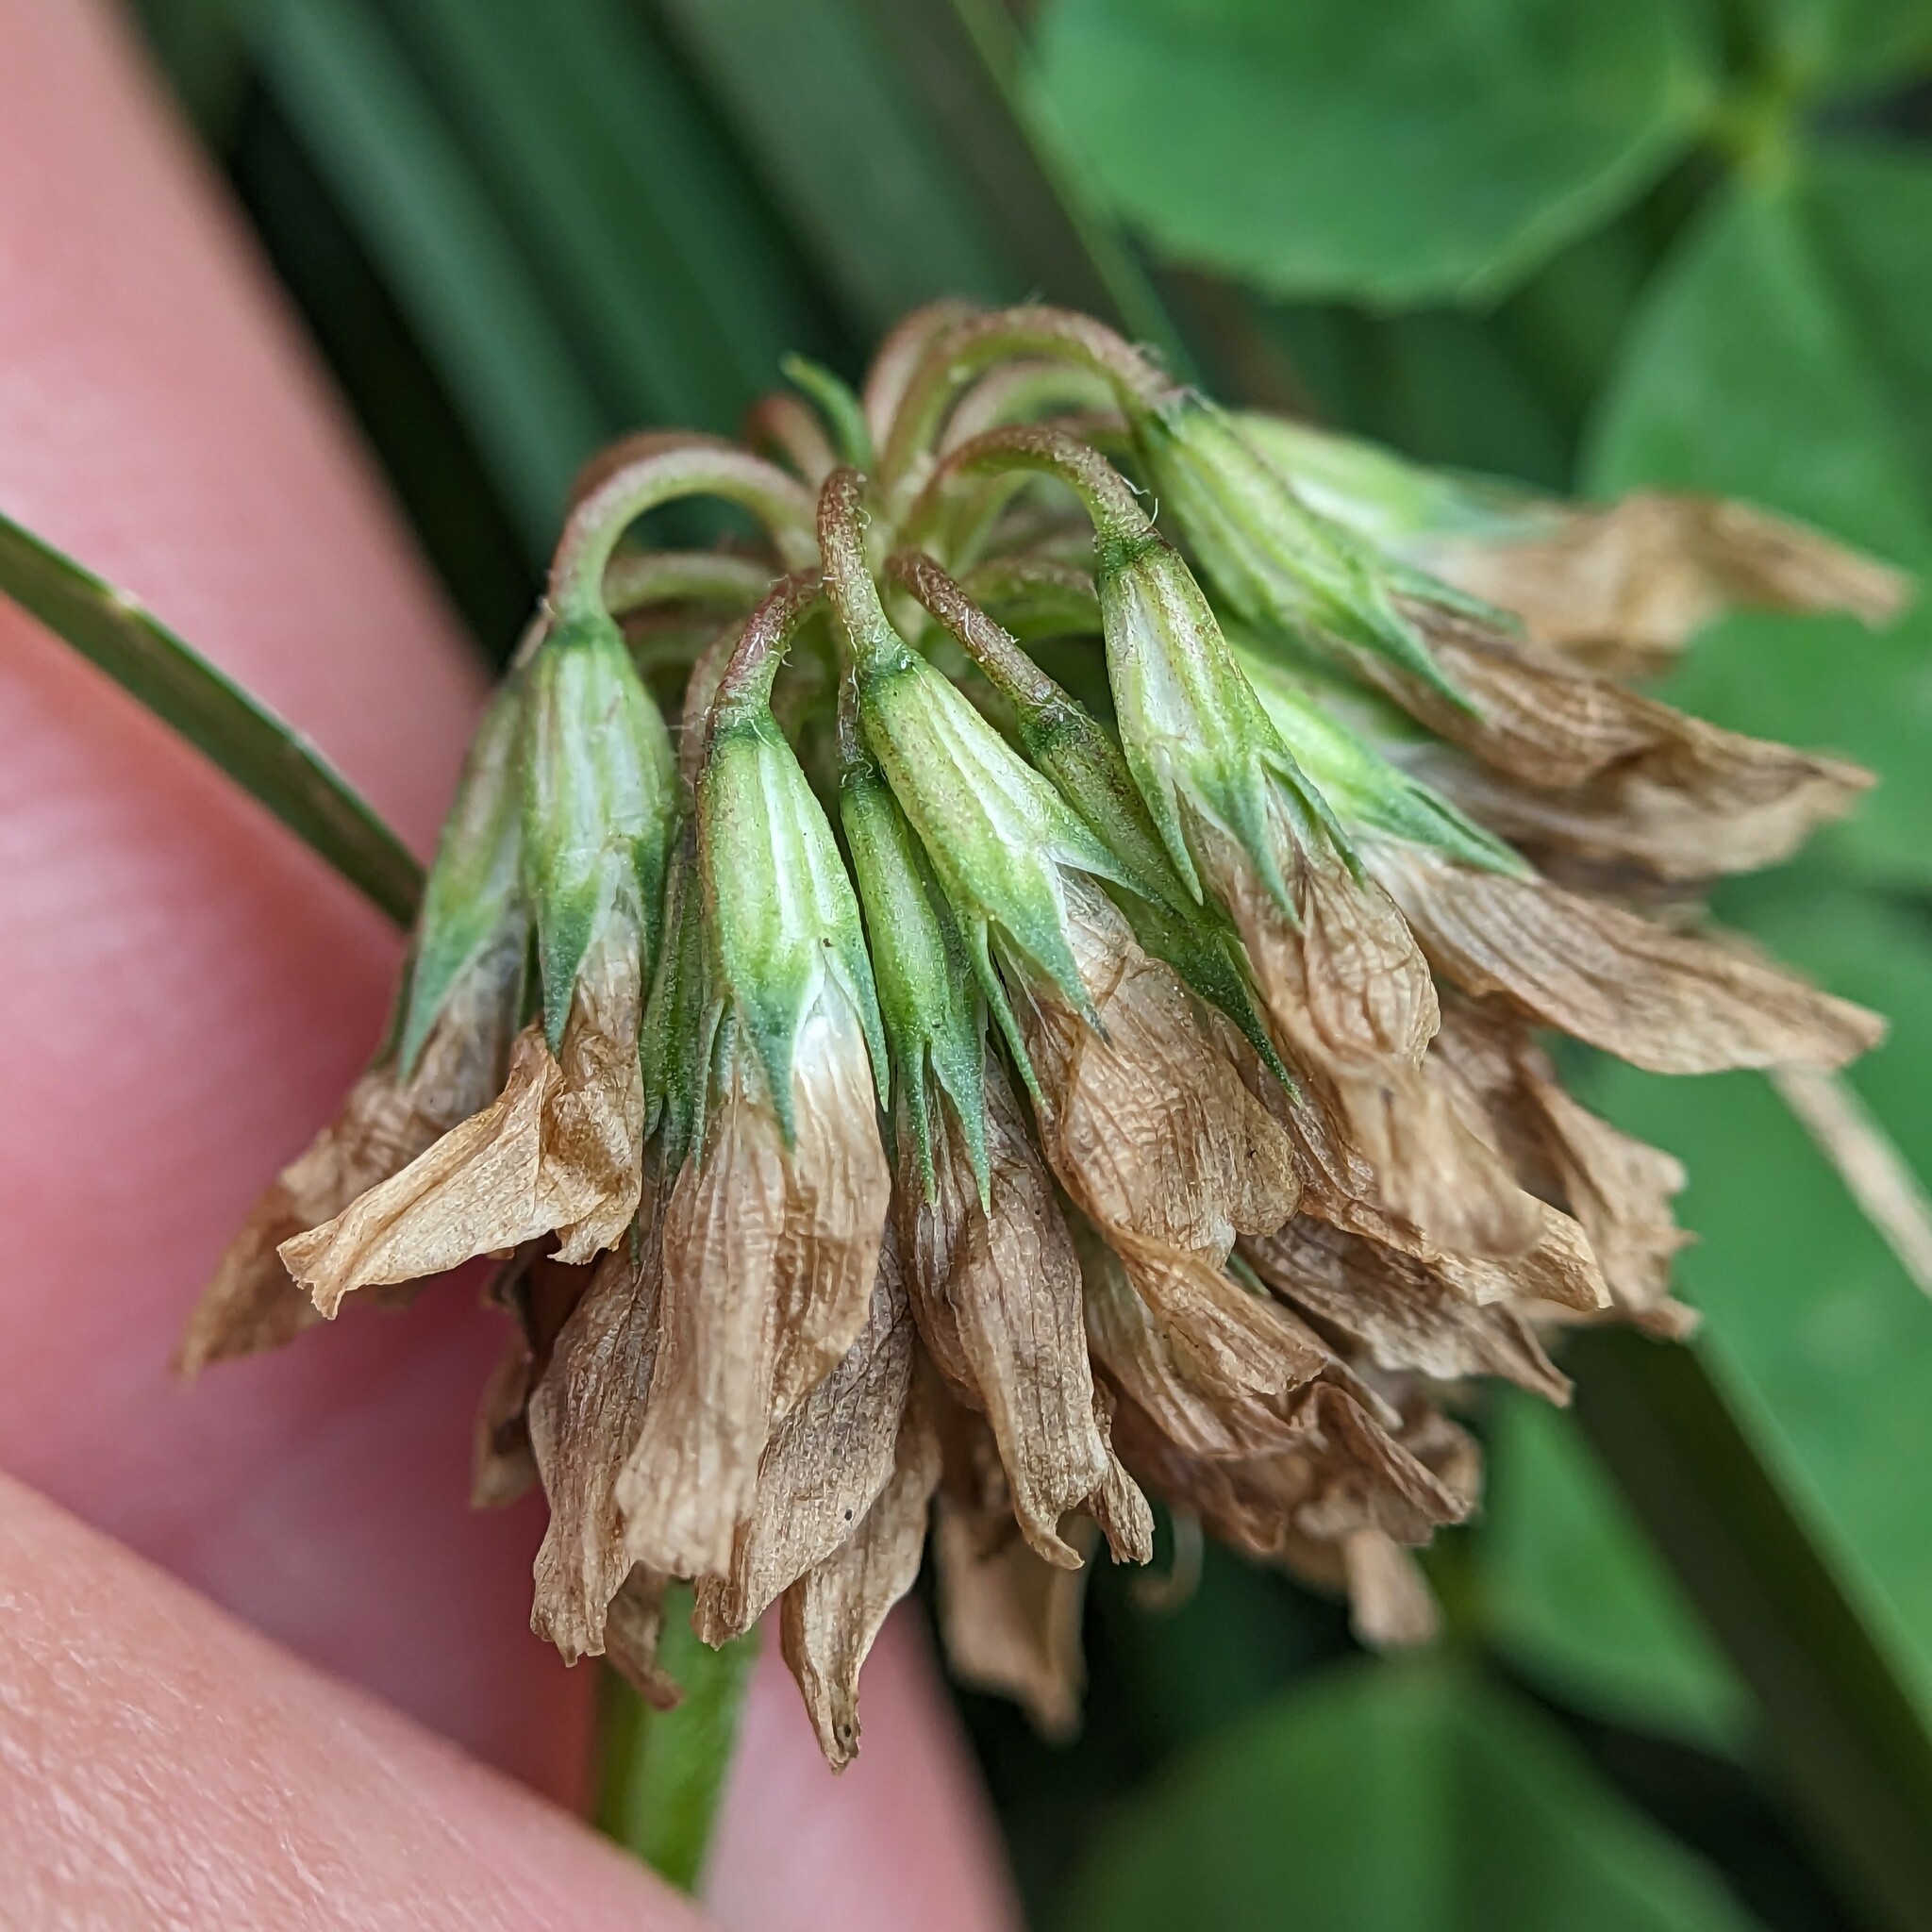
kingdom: Plantae
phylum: Tracheophyta
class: Magnoliopsida
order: Fabales
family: Fabaceae
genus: Trifolium
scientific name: Trifolium repens
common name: White clover
